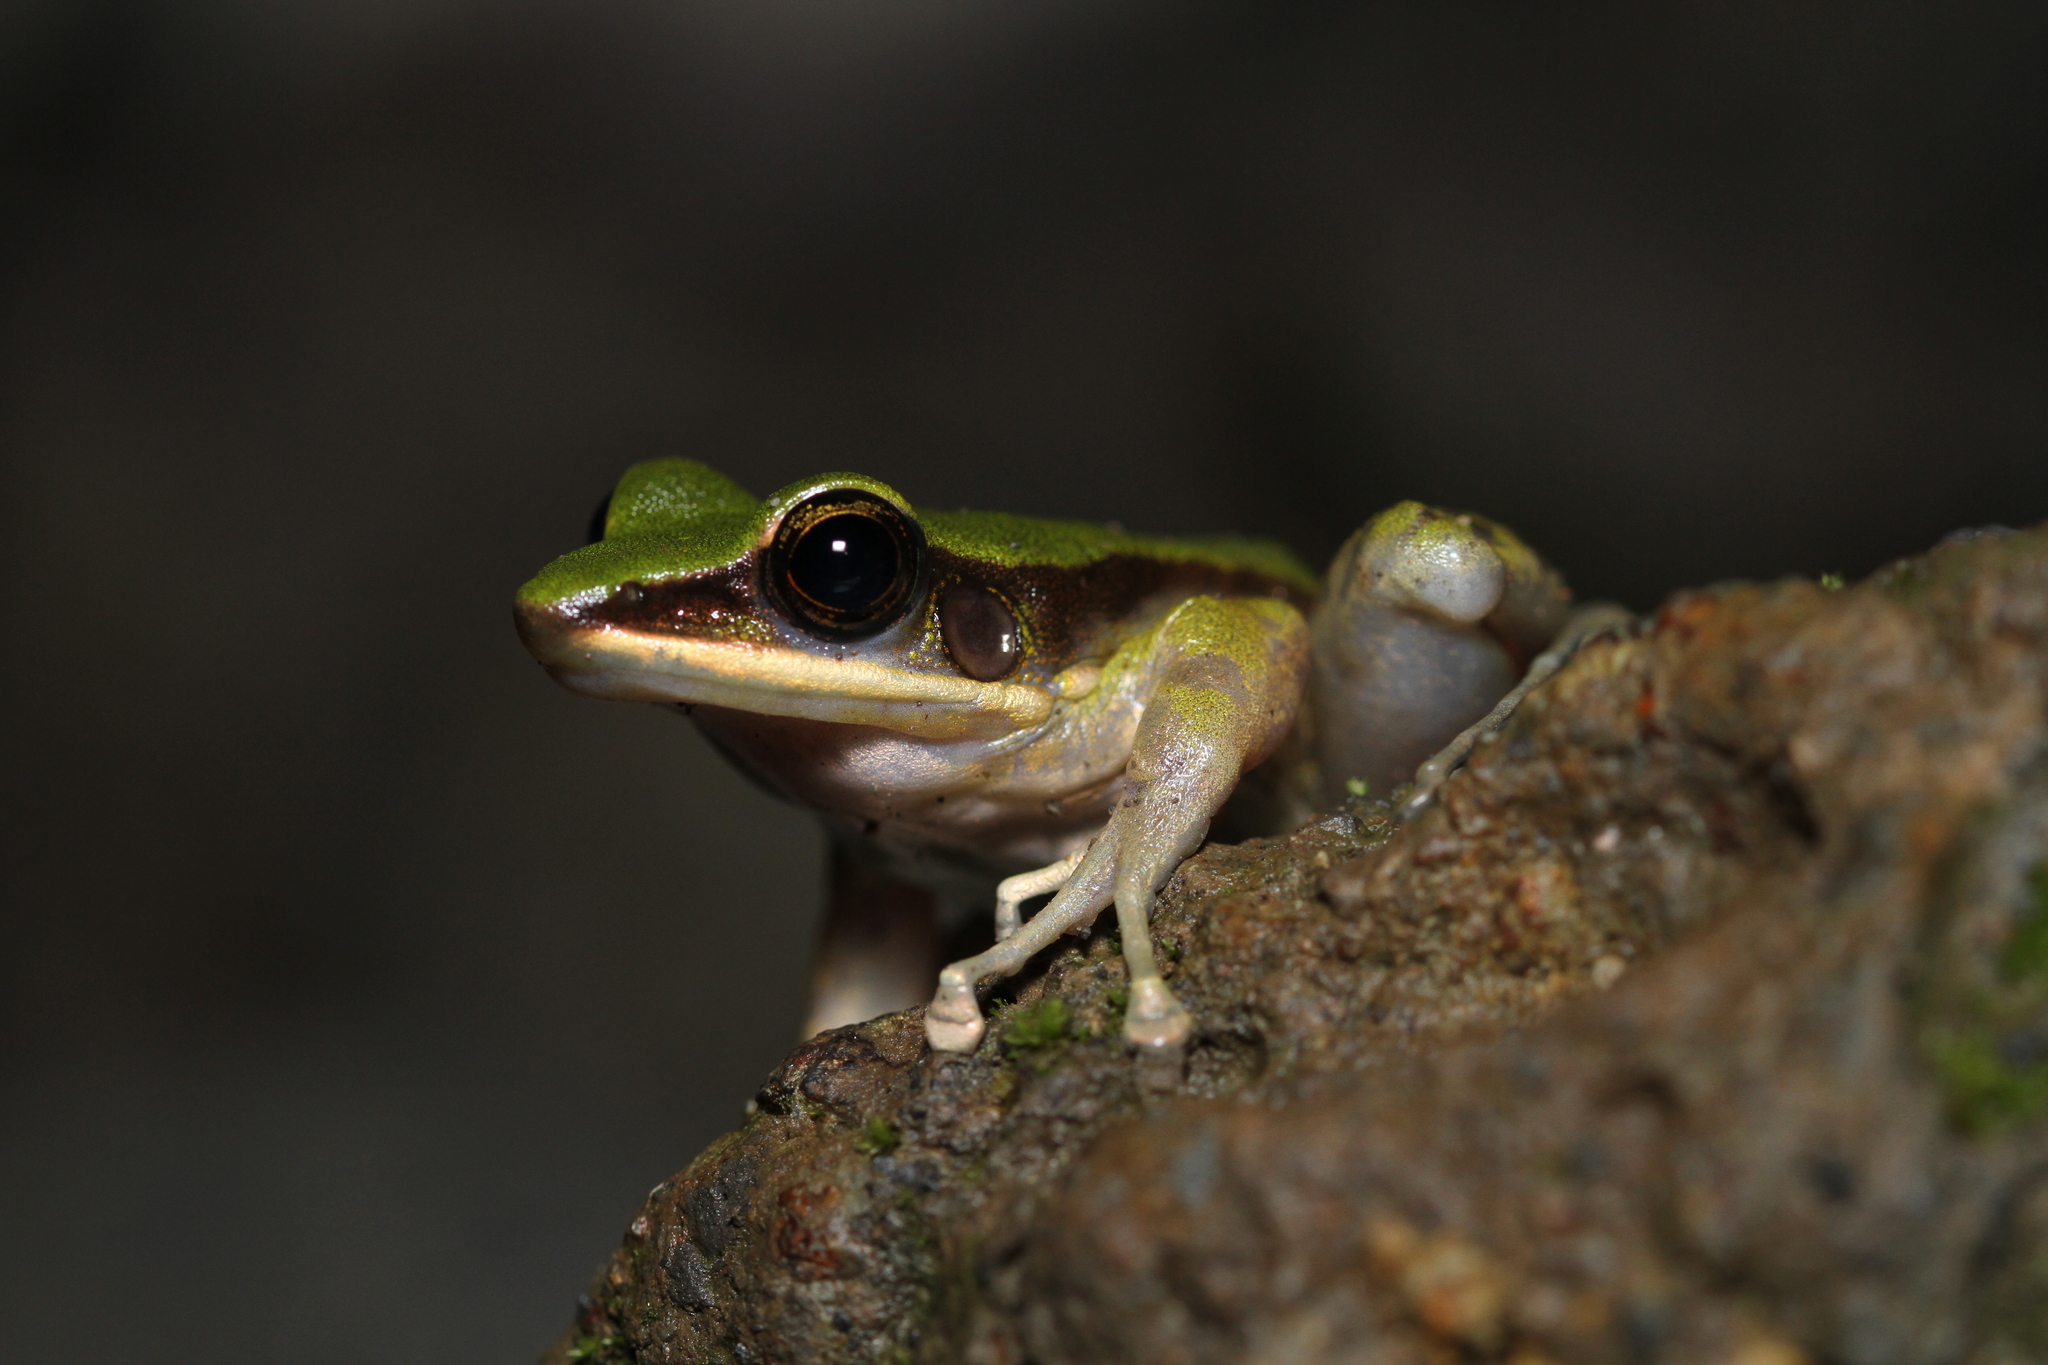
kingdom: Animalia
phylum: Chordata
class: Amphibia
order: Anura
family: Ranidae
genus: Odorrana
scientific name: Odorrana hosii
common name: Green tree frog
